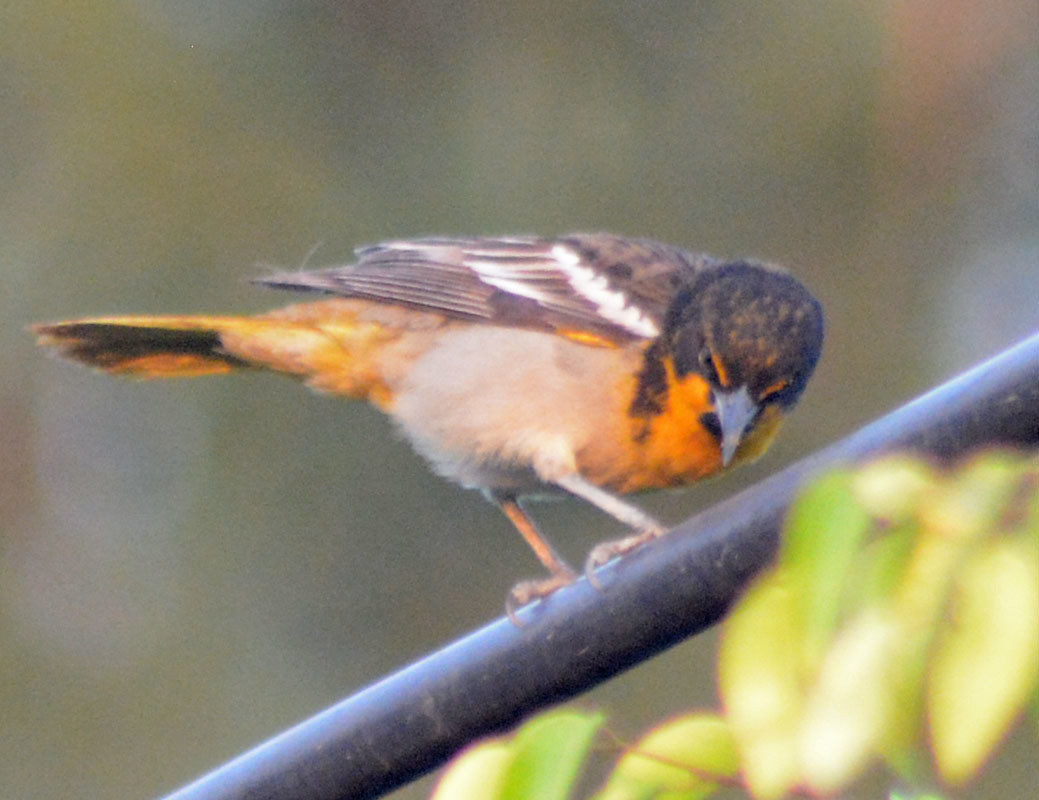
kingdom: Animalia
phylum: Chordata
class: Aves
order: Passeriformes
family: Icteridae
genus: Icterus
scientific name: Icterus abeillei
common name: Black-backed oriole
